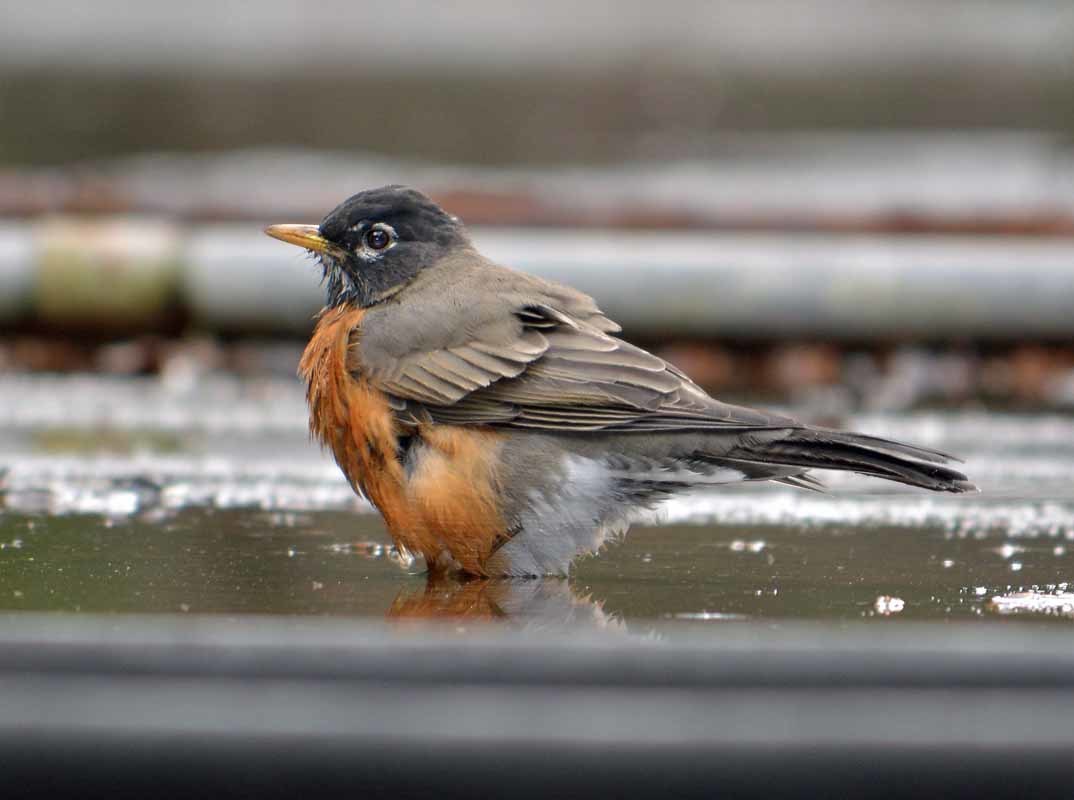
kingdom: Animalia
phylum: Chordata
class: Aves
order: Passeriformes
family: Turdidae
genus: Turdus
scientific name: Turdus migratorius
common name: American robin
